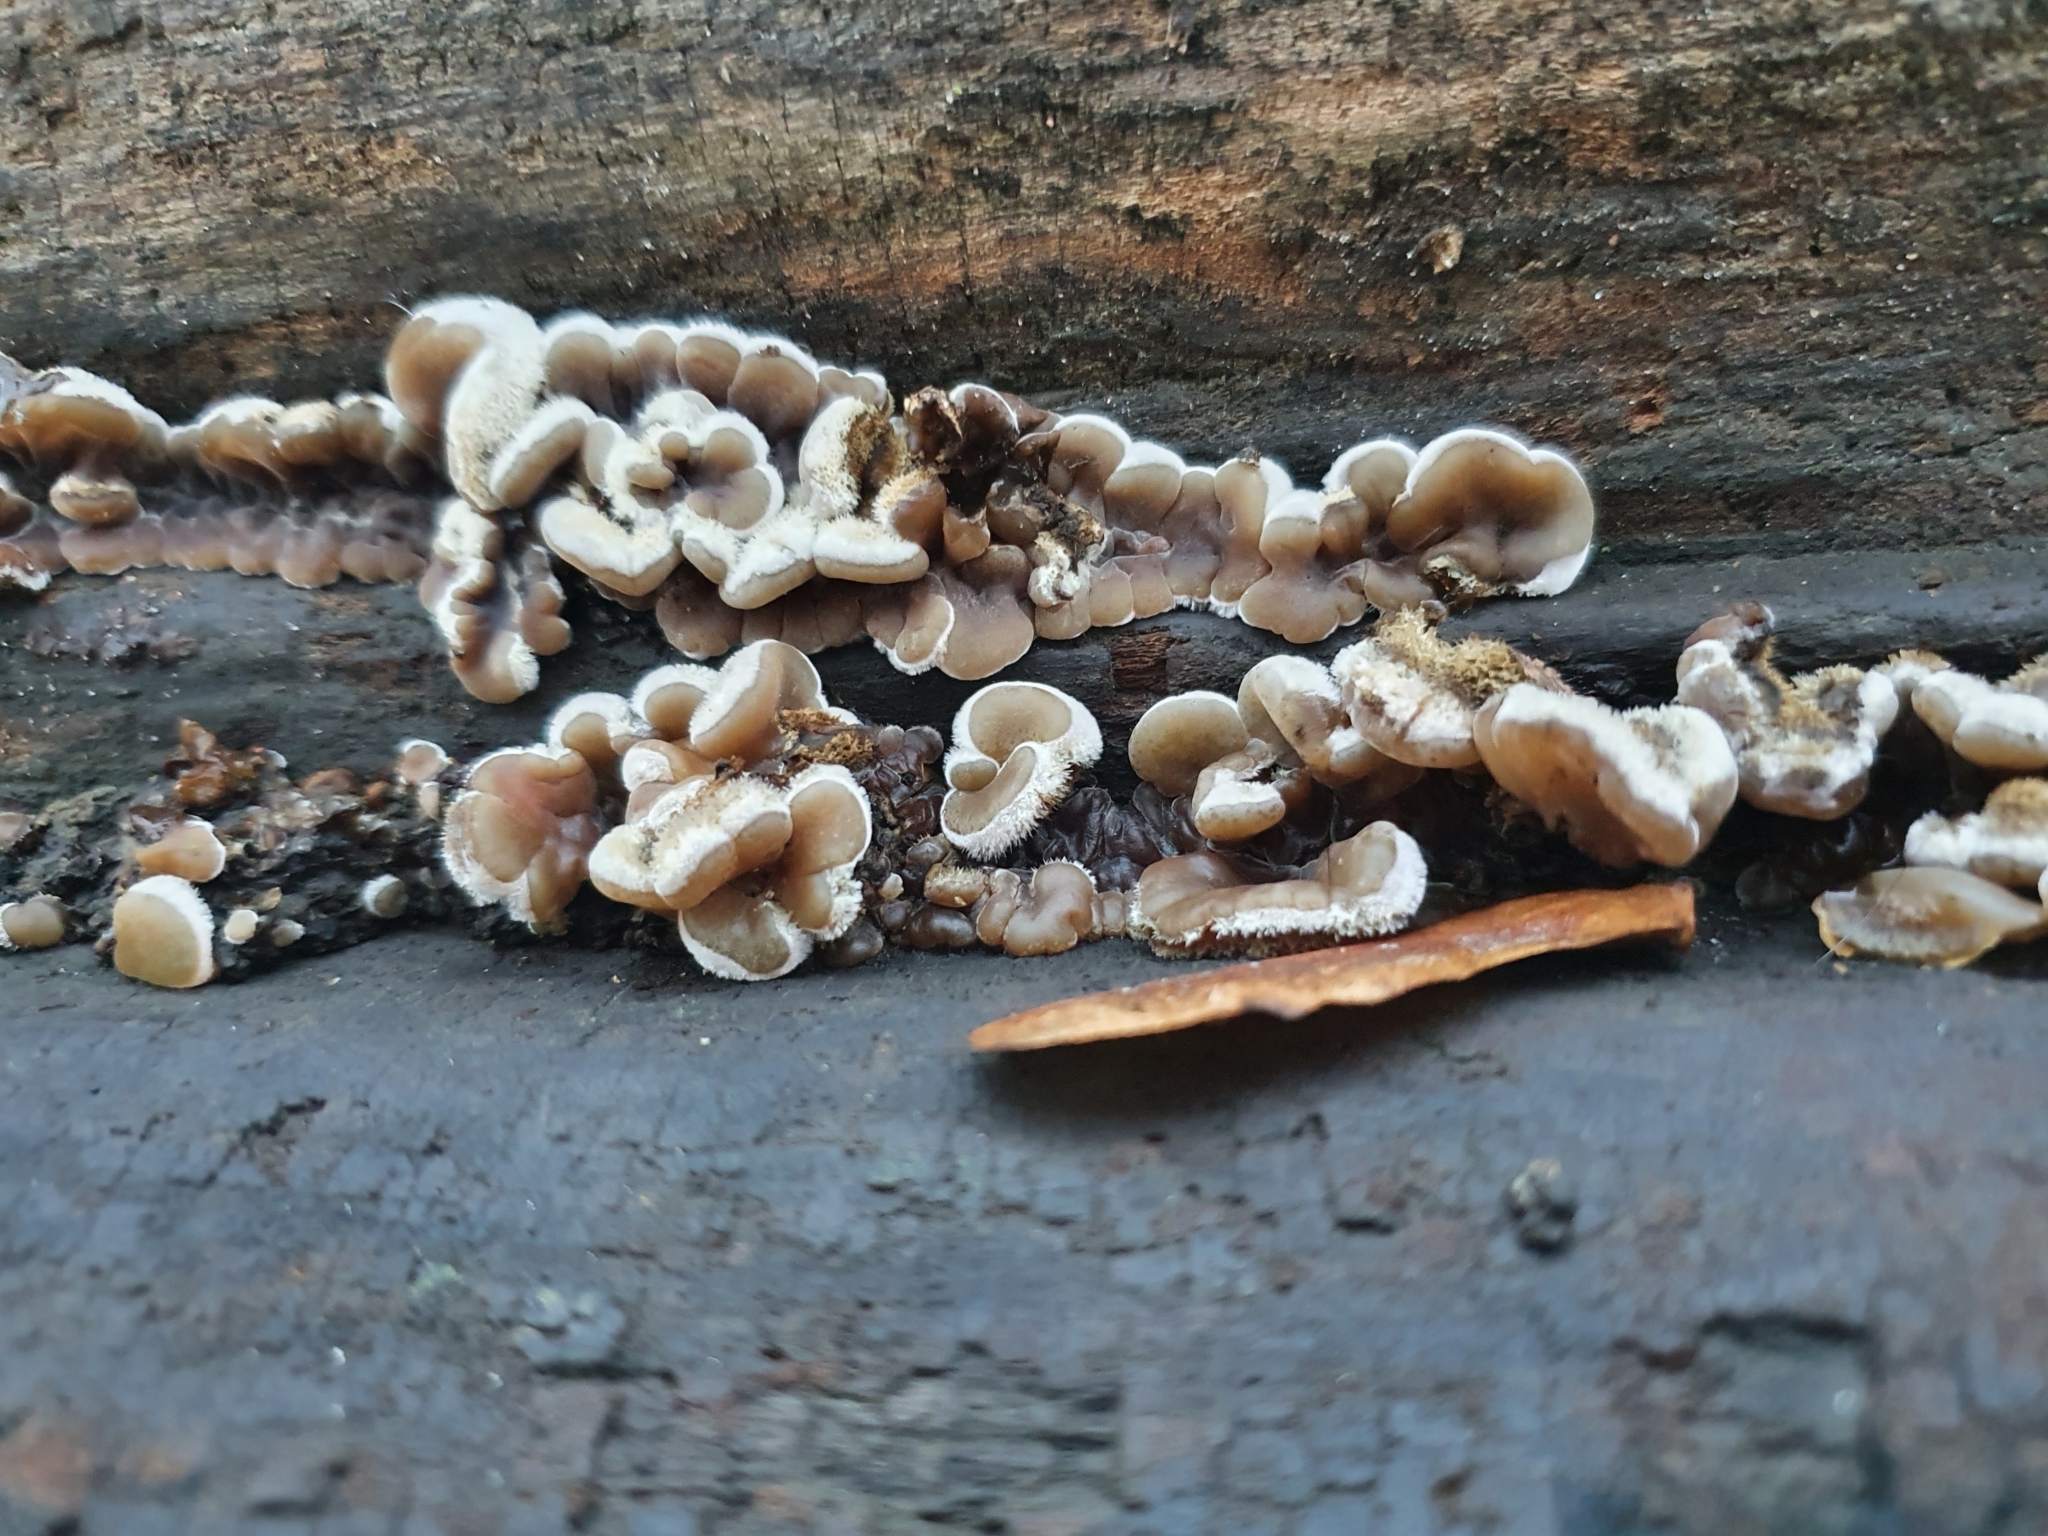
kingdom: Fungi
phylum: Basidiomycota
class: Agaricomycetes
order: Auriculariales
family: Auriculariaceae
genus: Auricularia
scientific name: Auricularia mesenterica
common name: Tripe fungus
